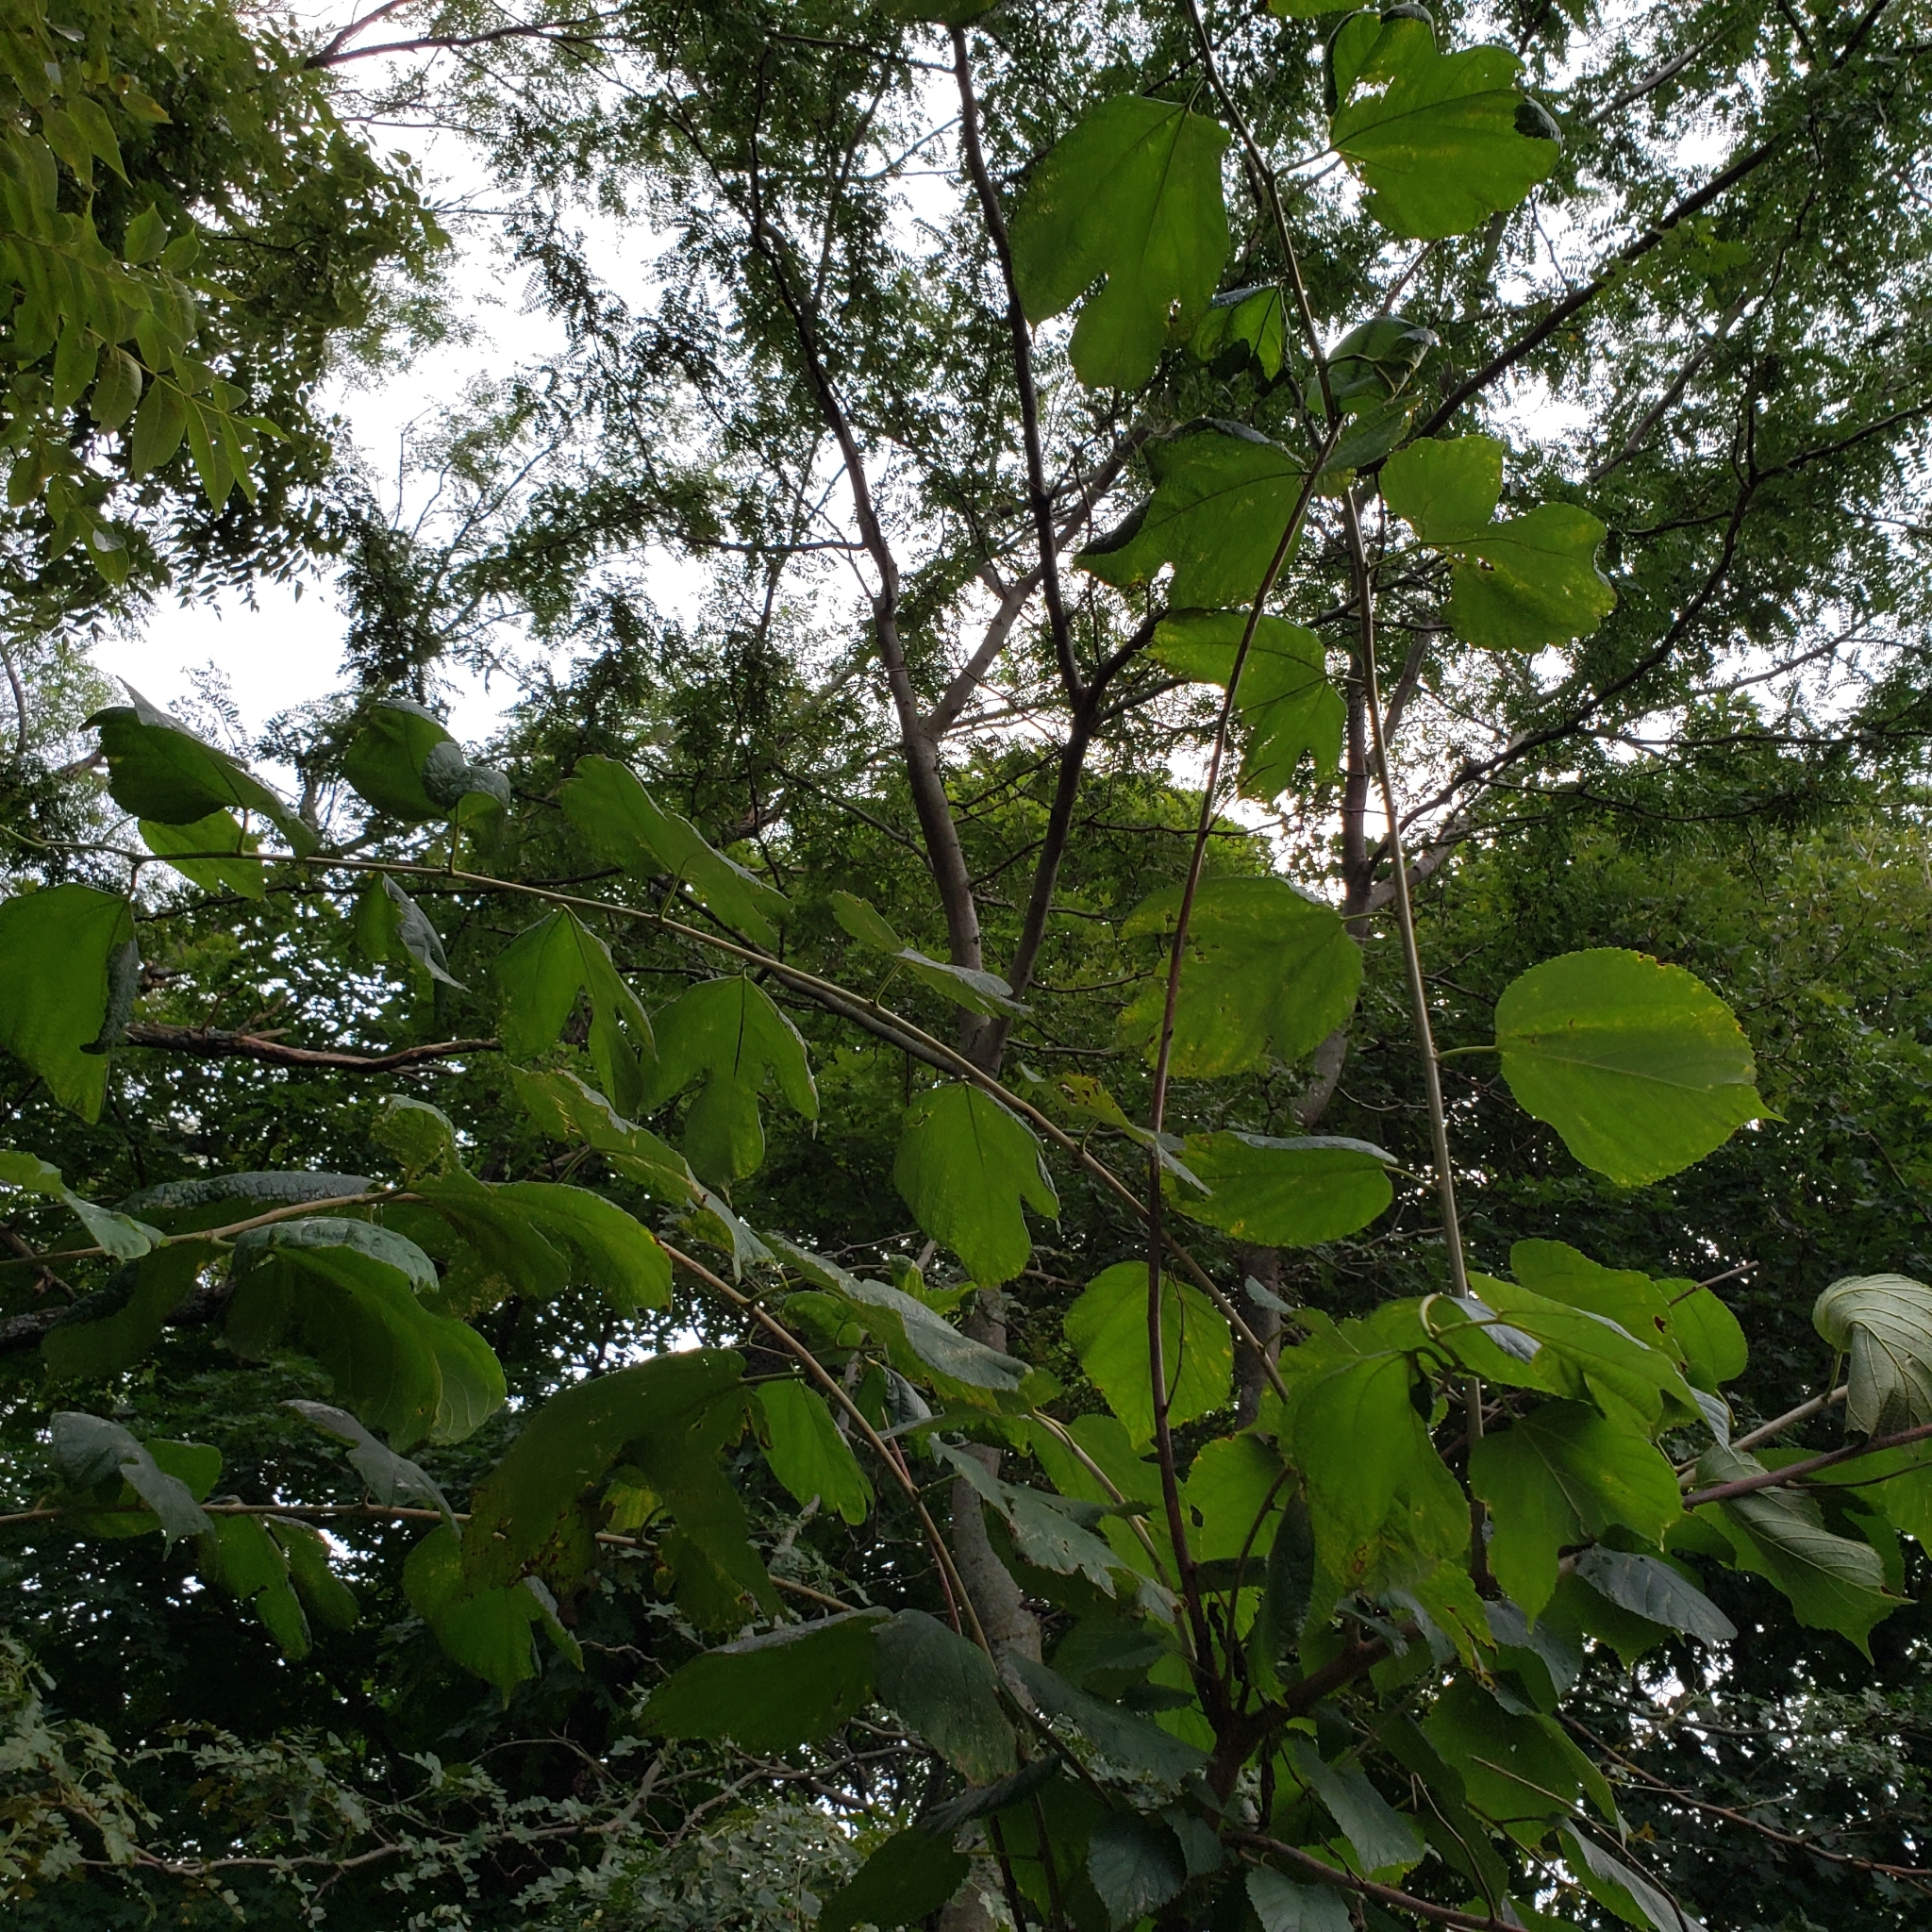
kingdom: Plantae
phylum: Tracheophyta
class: Magnoliopsida
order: Rosales
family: Moraceae
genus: Morus
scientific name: Morus rubra
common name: Red mulberry
